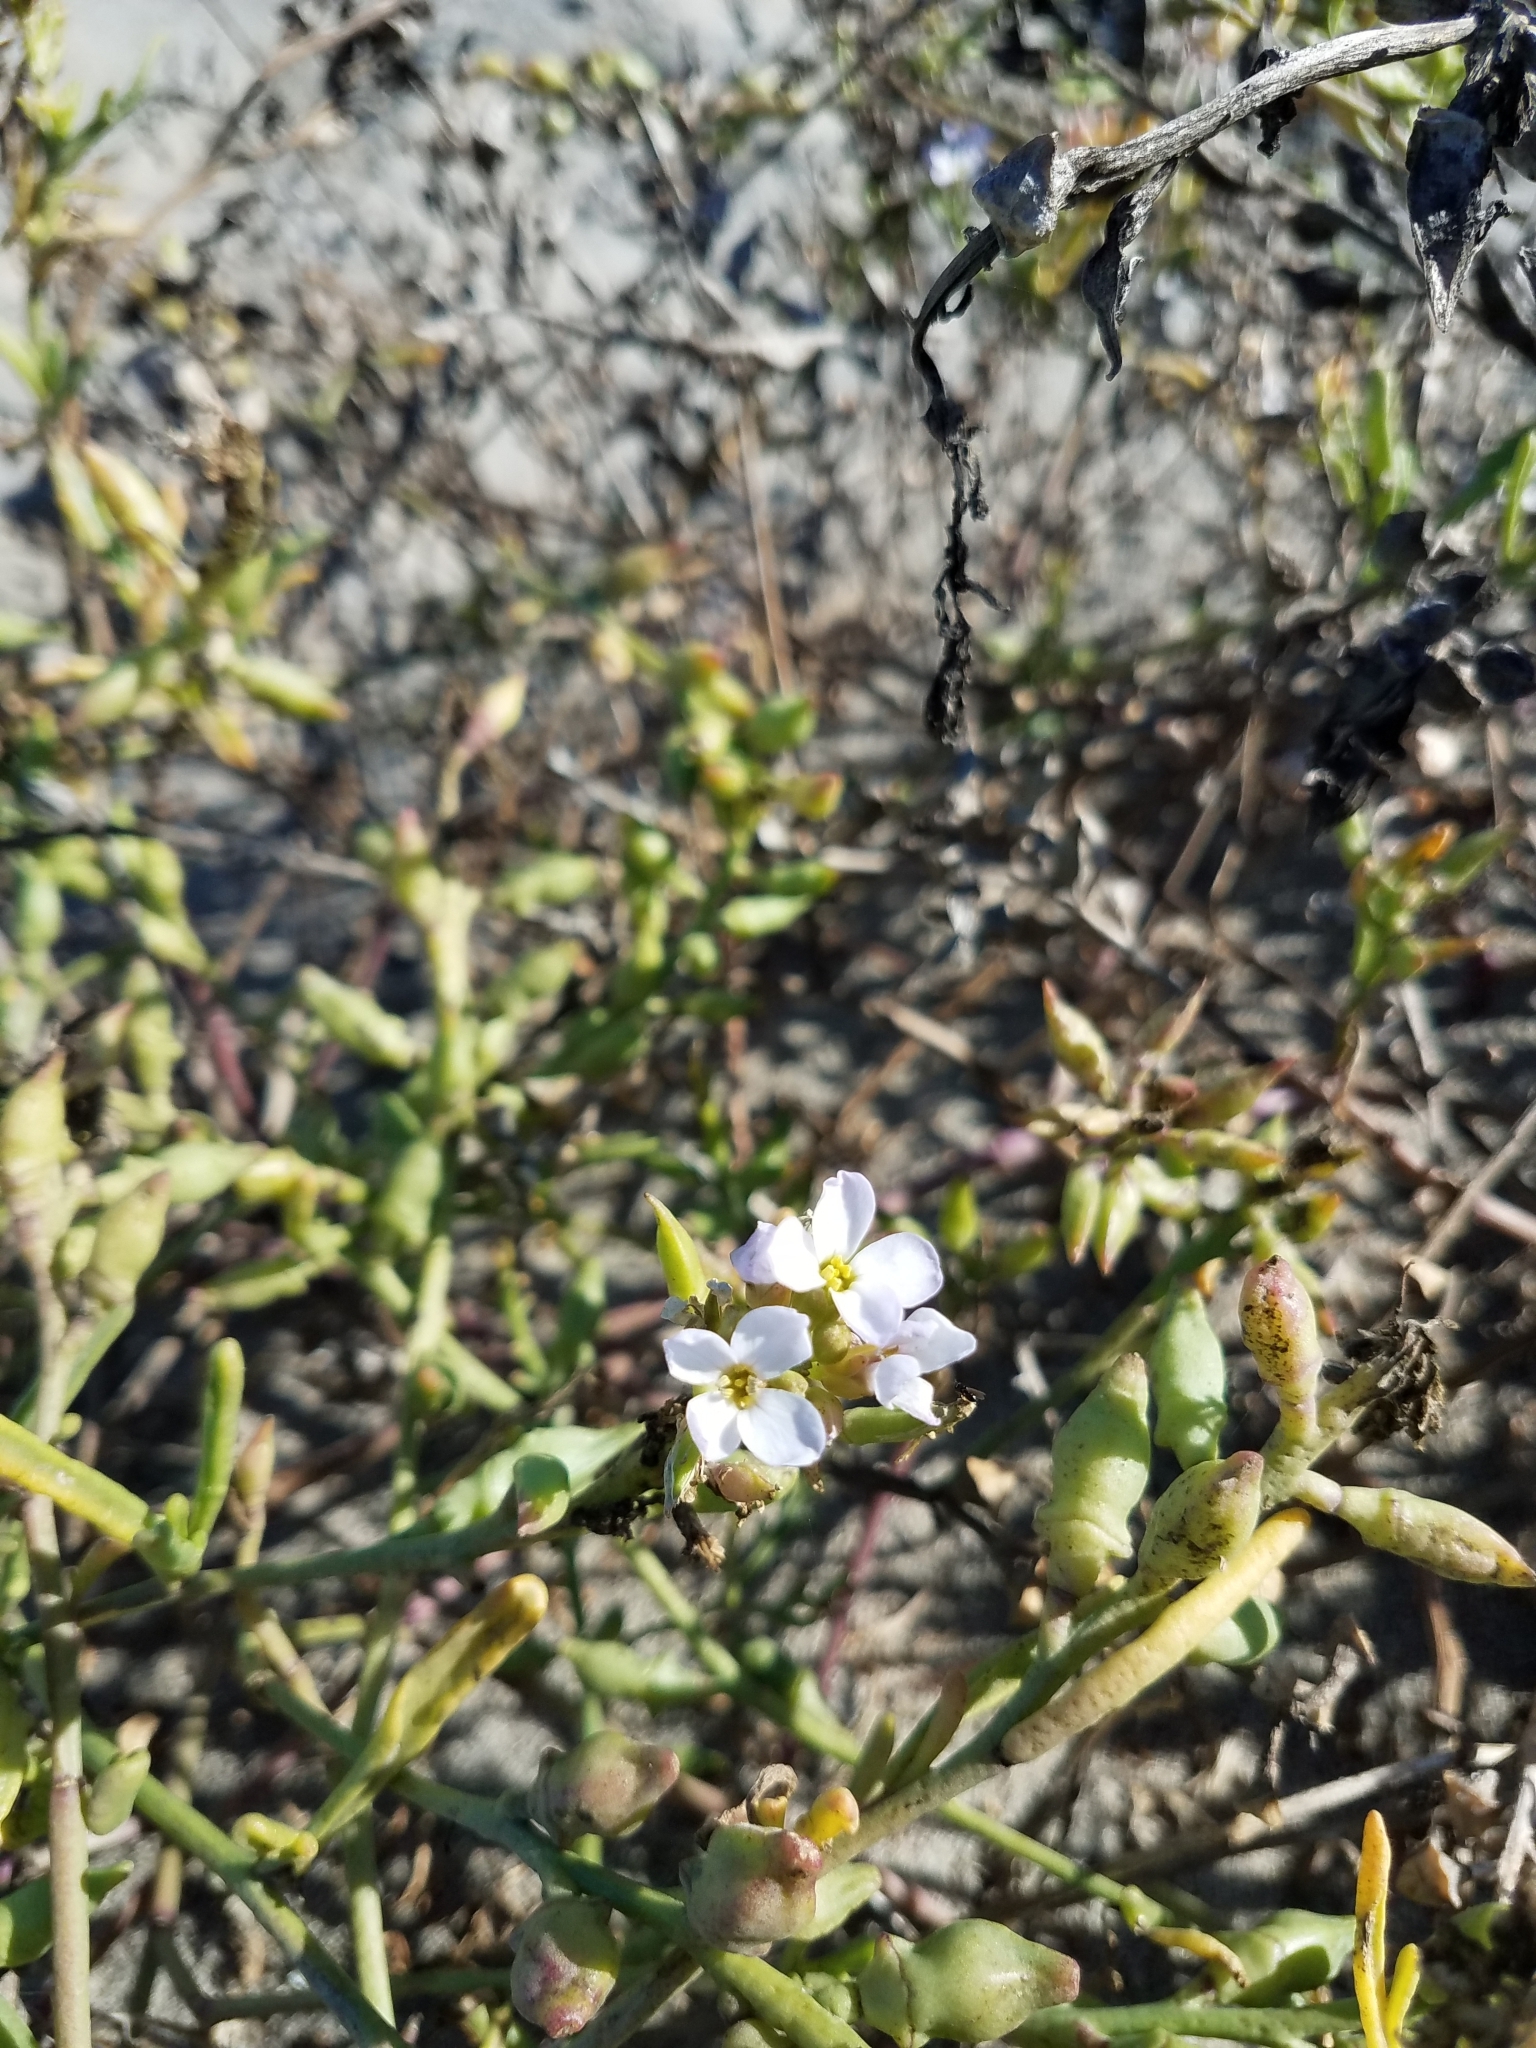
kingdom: Plantae
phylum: Tracheophyta
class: Magnoliopsida
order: Brassicales
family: Brassicaceae
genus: Cakile
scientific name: Cakile maritima
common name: Sea rocket
